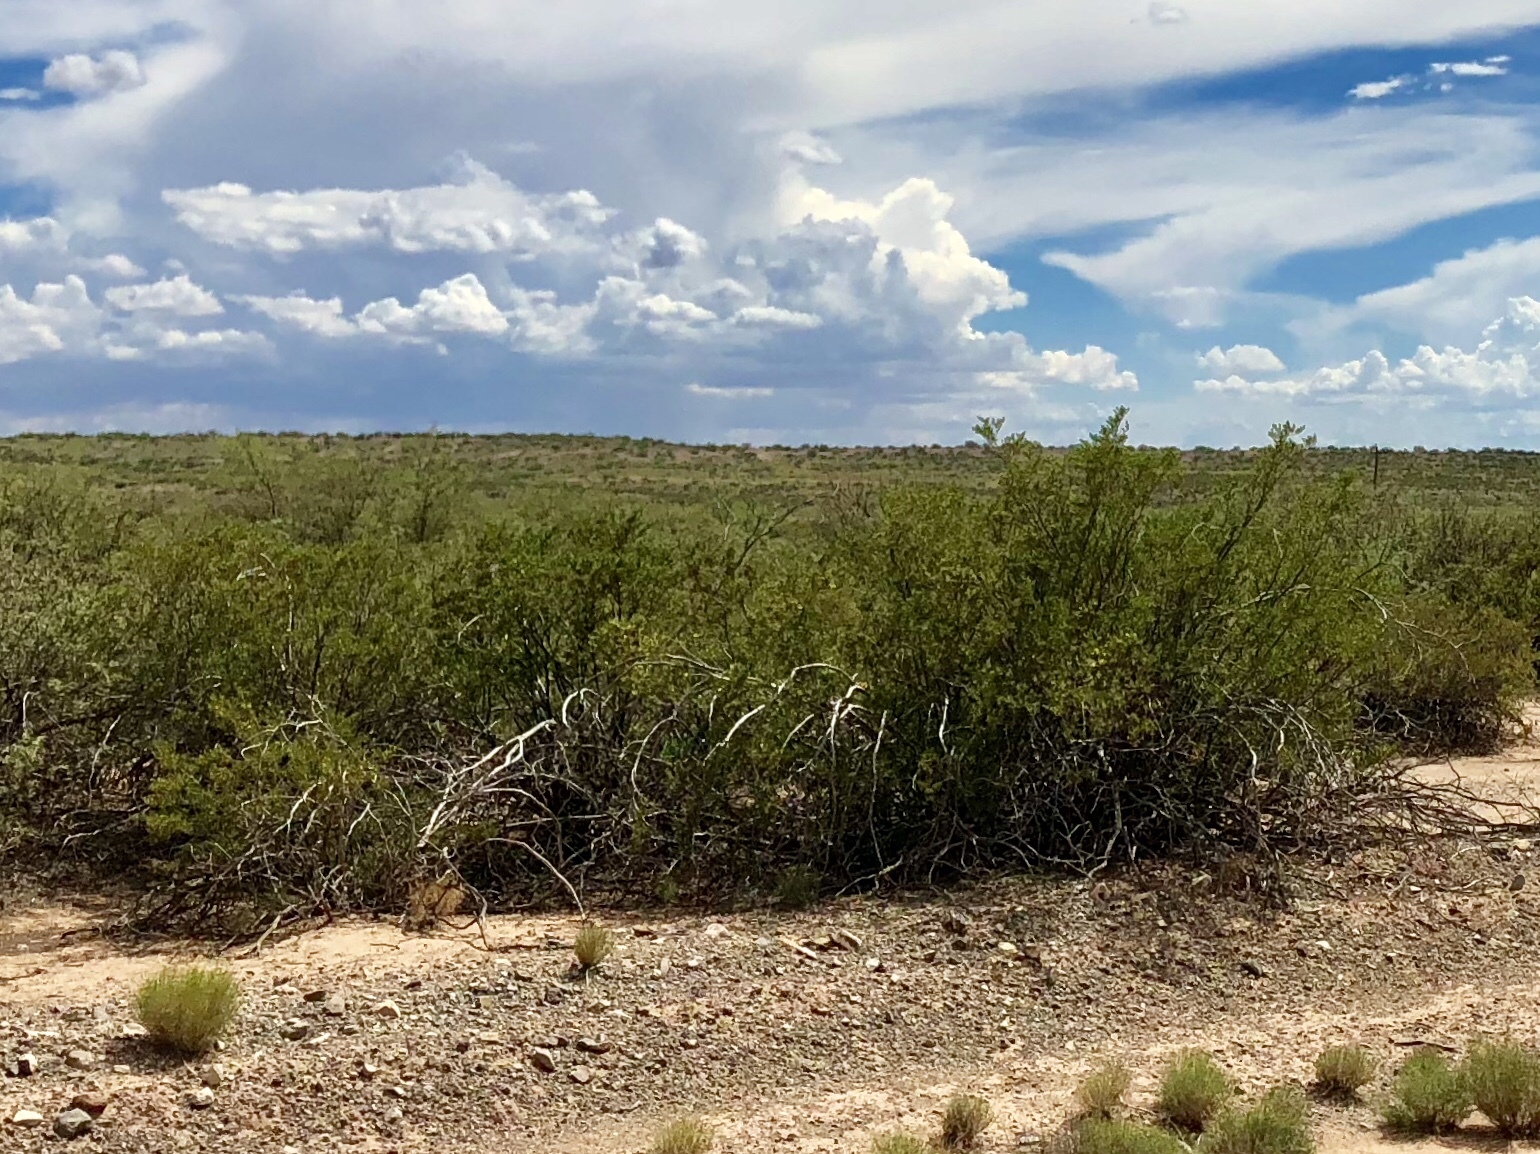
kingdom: Plantae
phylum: Tracheophyta
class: Magnoliopsida
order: Zygophyllales
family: Zygophyllaceae
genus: Larrea
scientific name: Larrea tridentata
